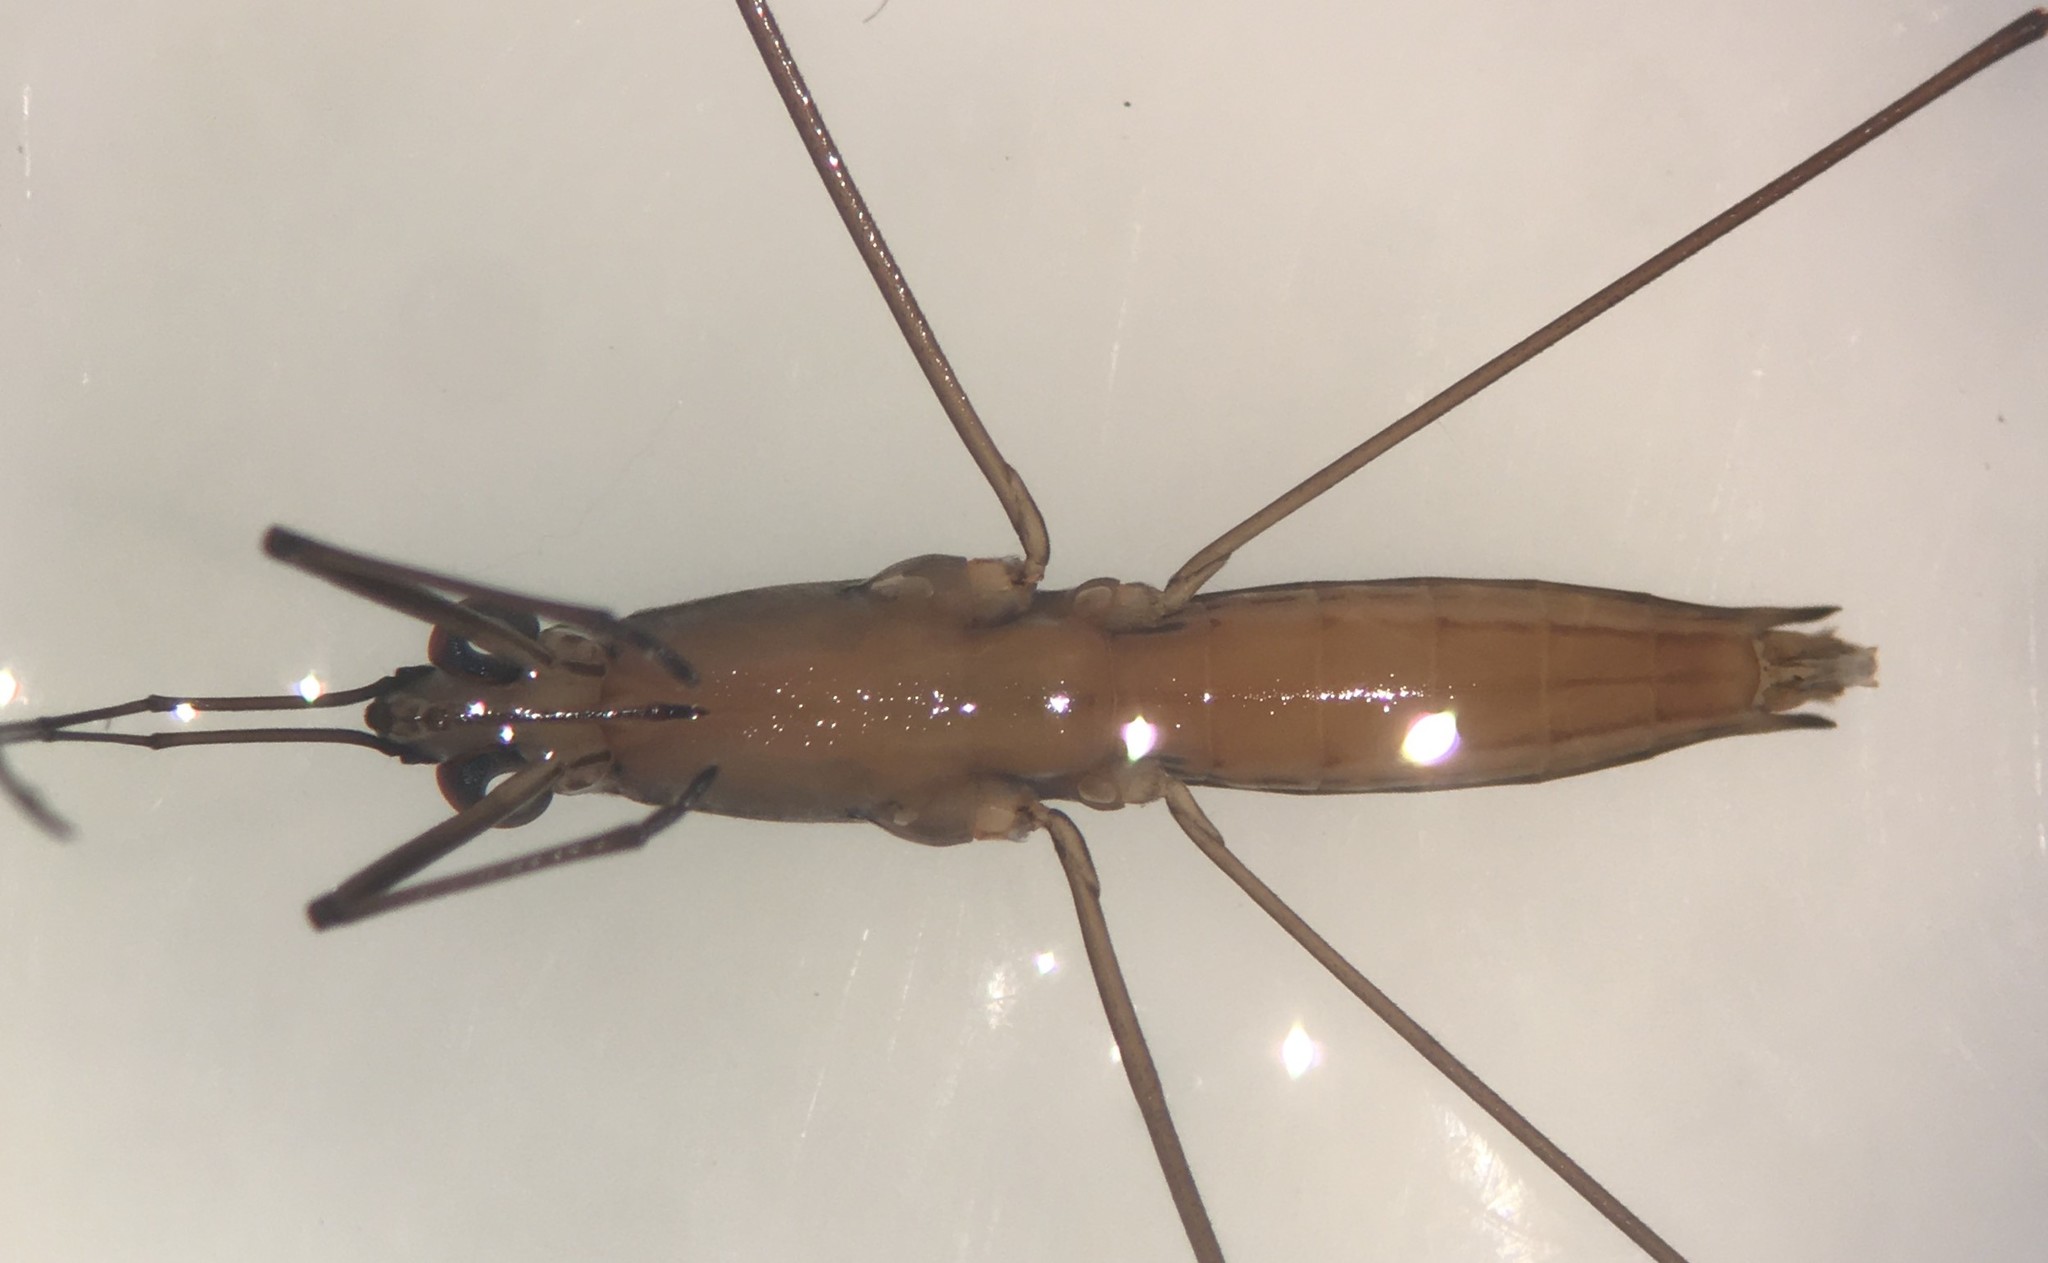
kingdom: Animalia
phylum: Arthropoda
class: Insecta
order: Hemiptera
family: Gerridae
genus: Limnoporus
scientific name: Limnoporus canaliculatus
